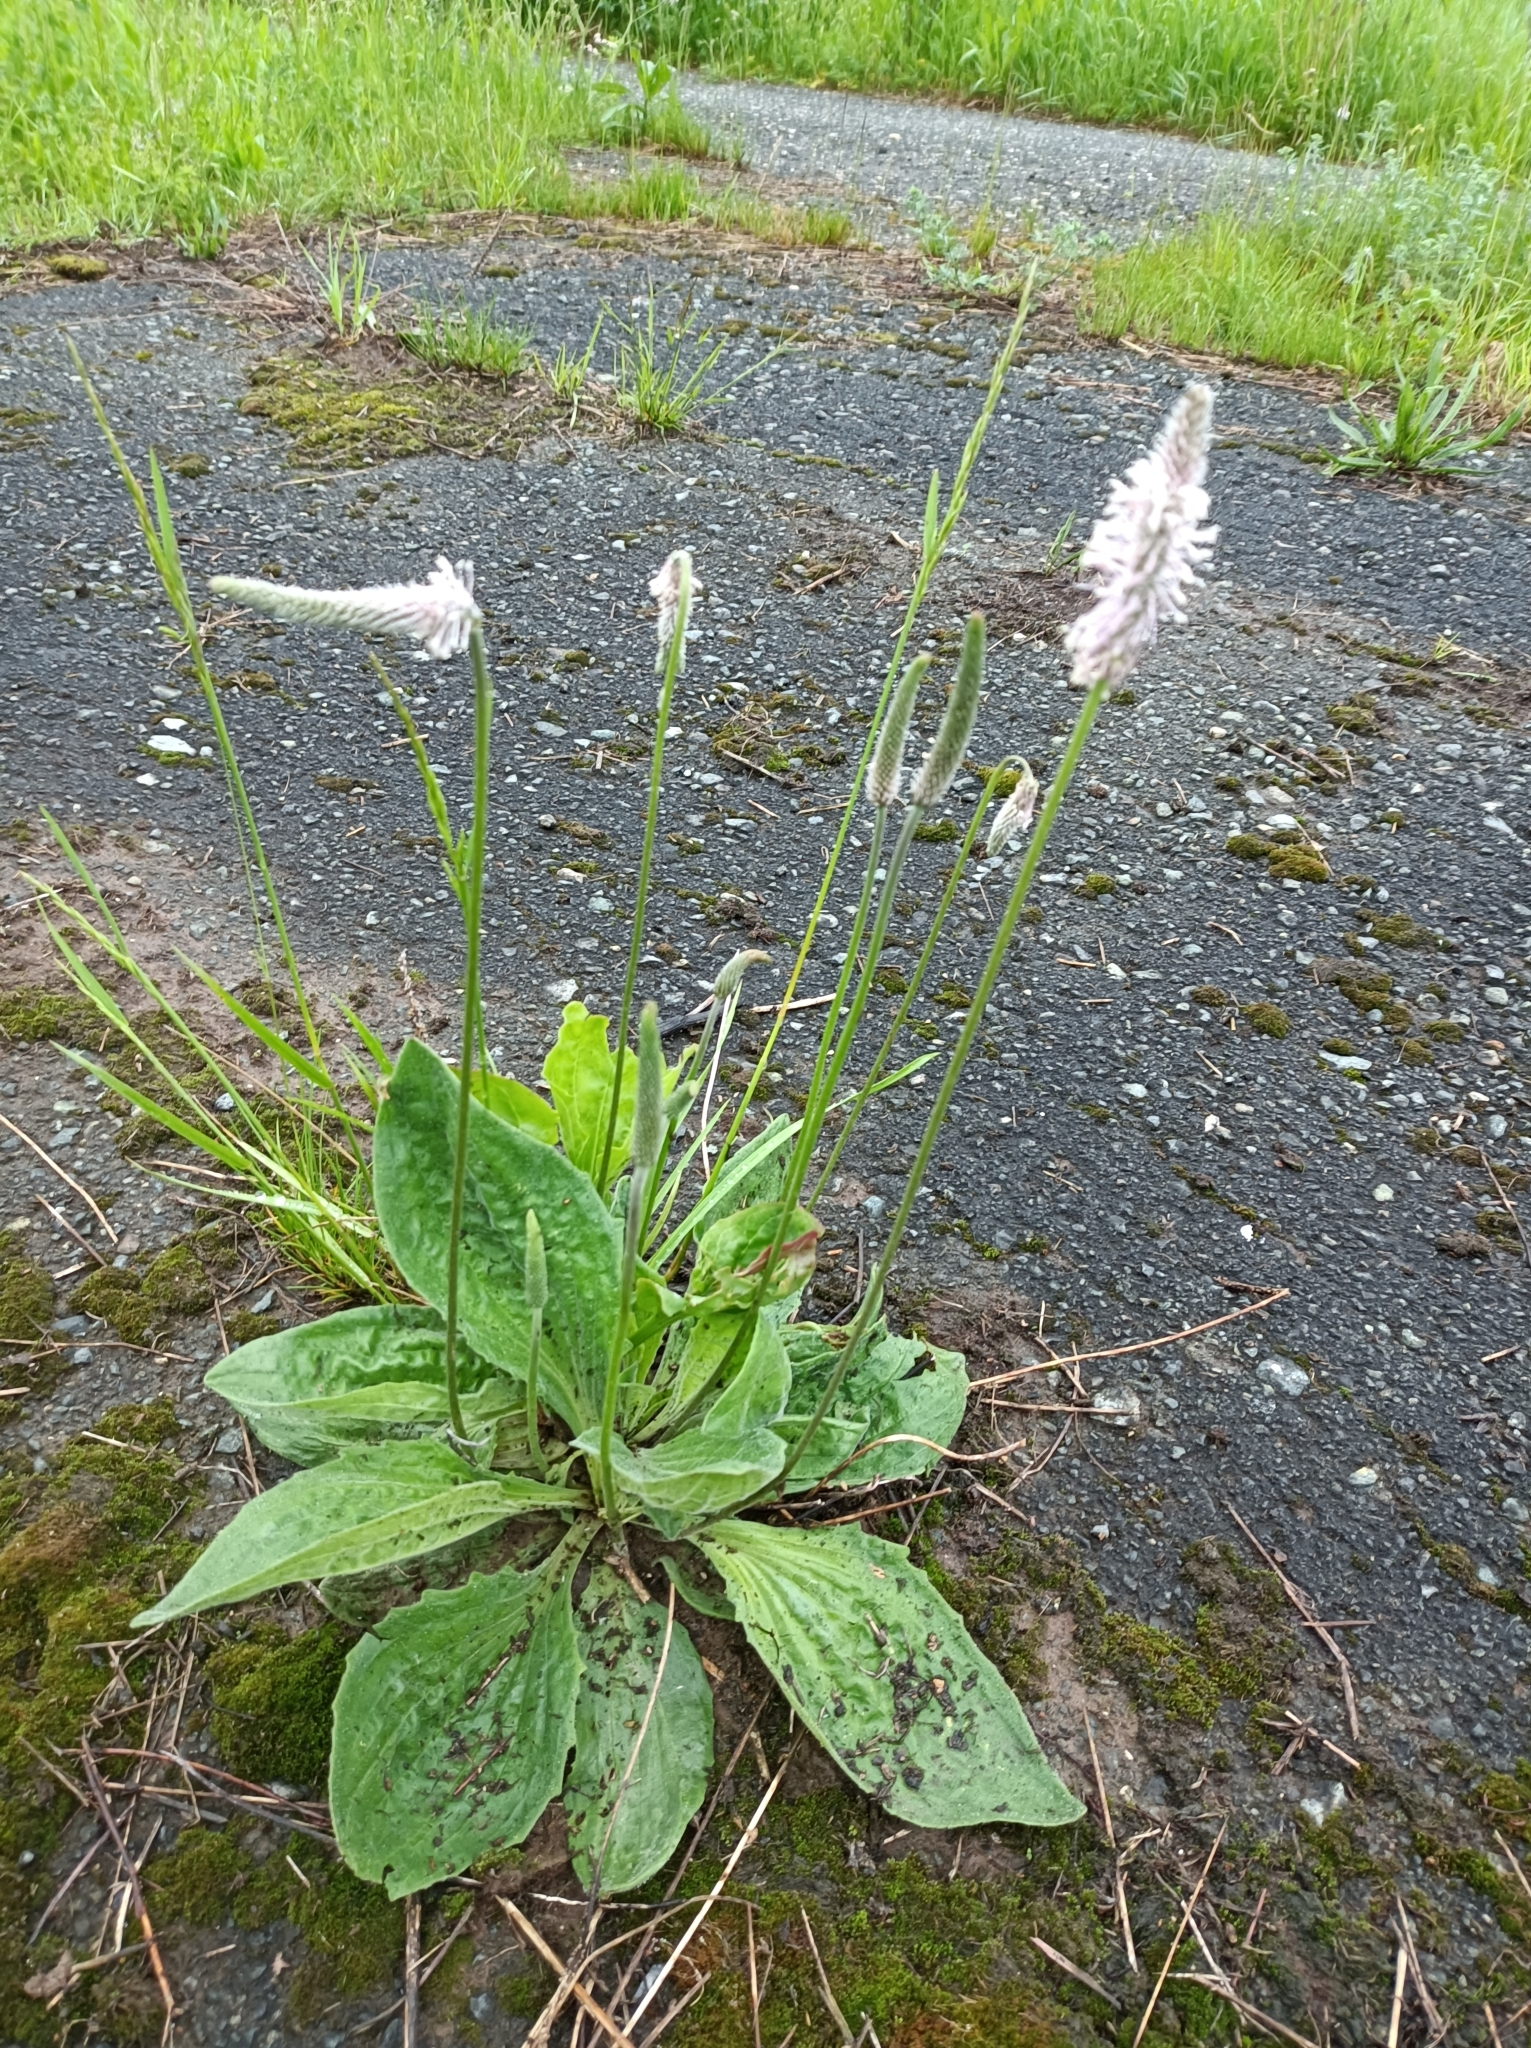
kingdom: Plantae
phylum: Tracheophyta
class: Magnoliopsida
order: Lamiales
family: Plantaginaceae
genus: Plantago
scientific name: Plantago media
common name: Hoary plantain
